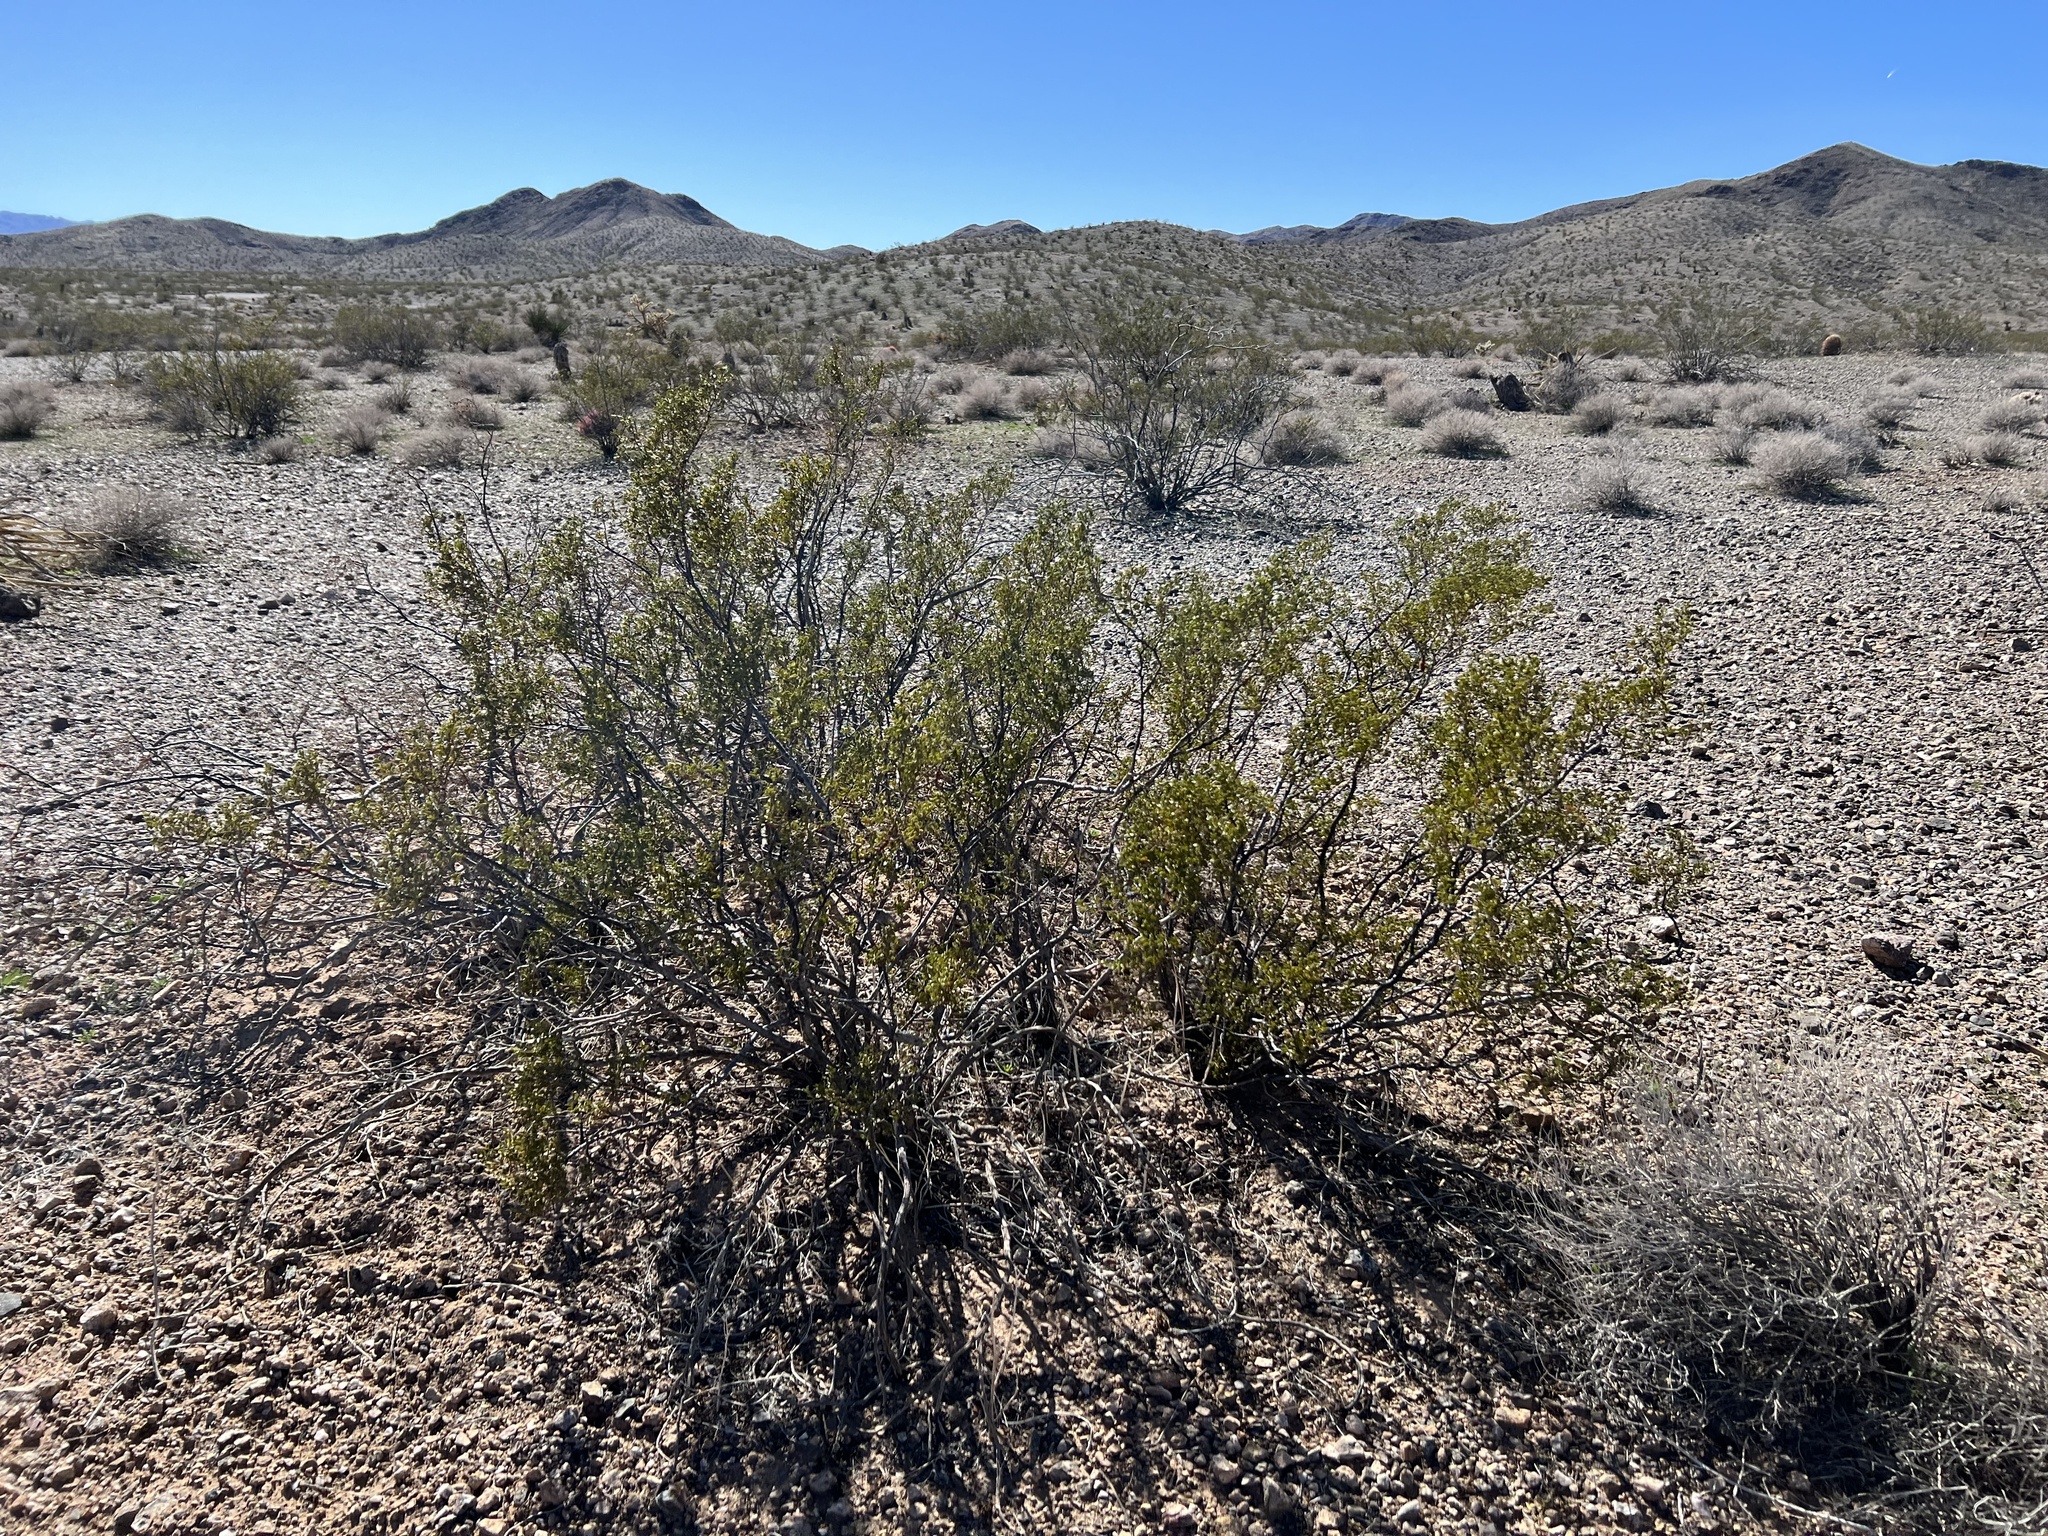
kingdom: Plantae
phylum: Tracheophyta
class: Magnoliopsida
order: Zygophyllales
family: Zygophyllaceae
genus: Larrea
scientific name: Larrea tridentata
